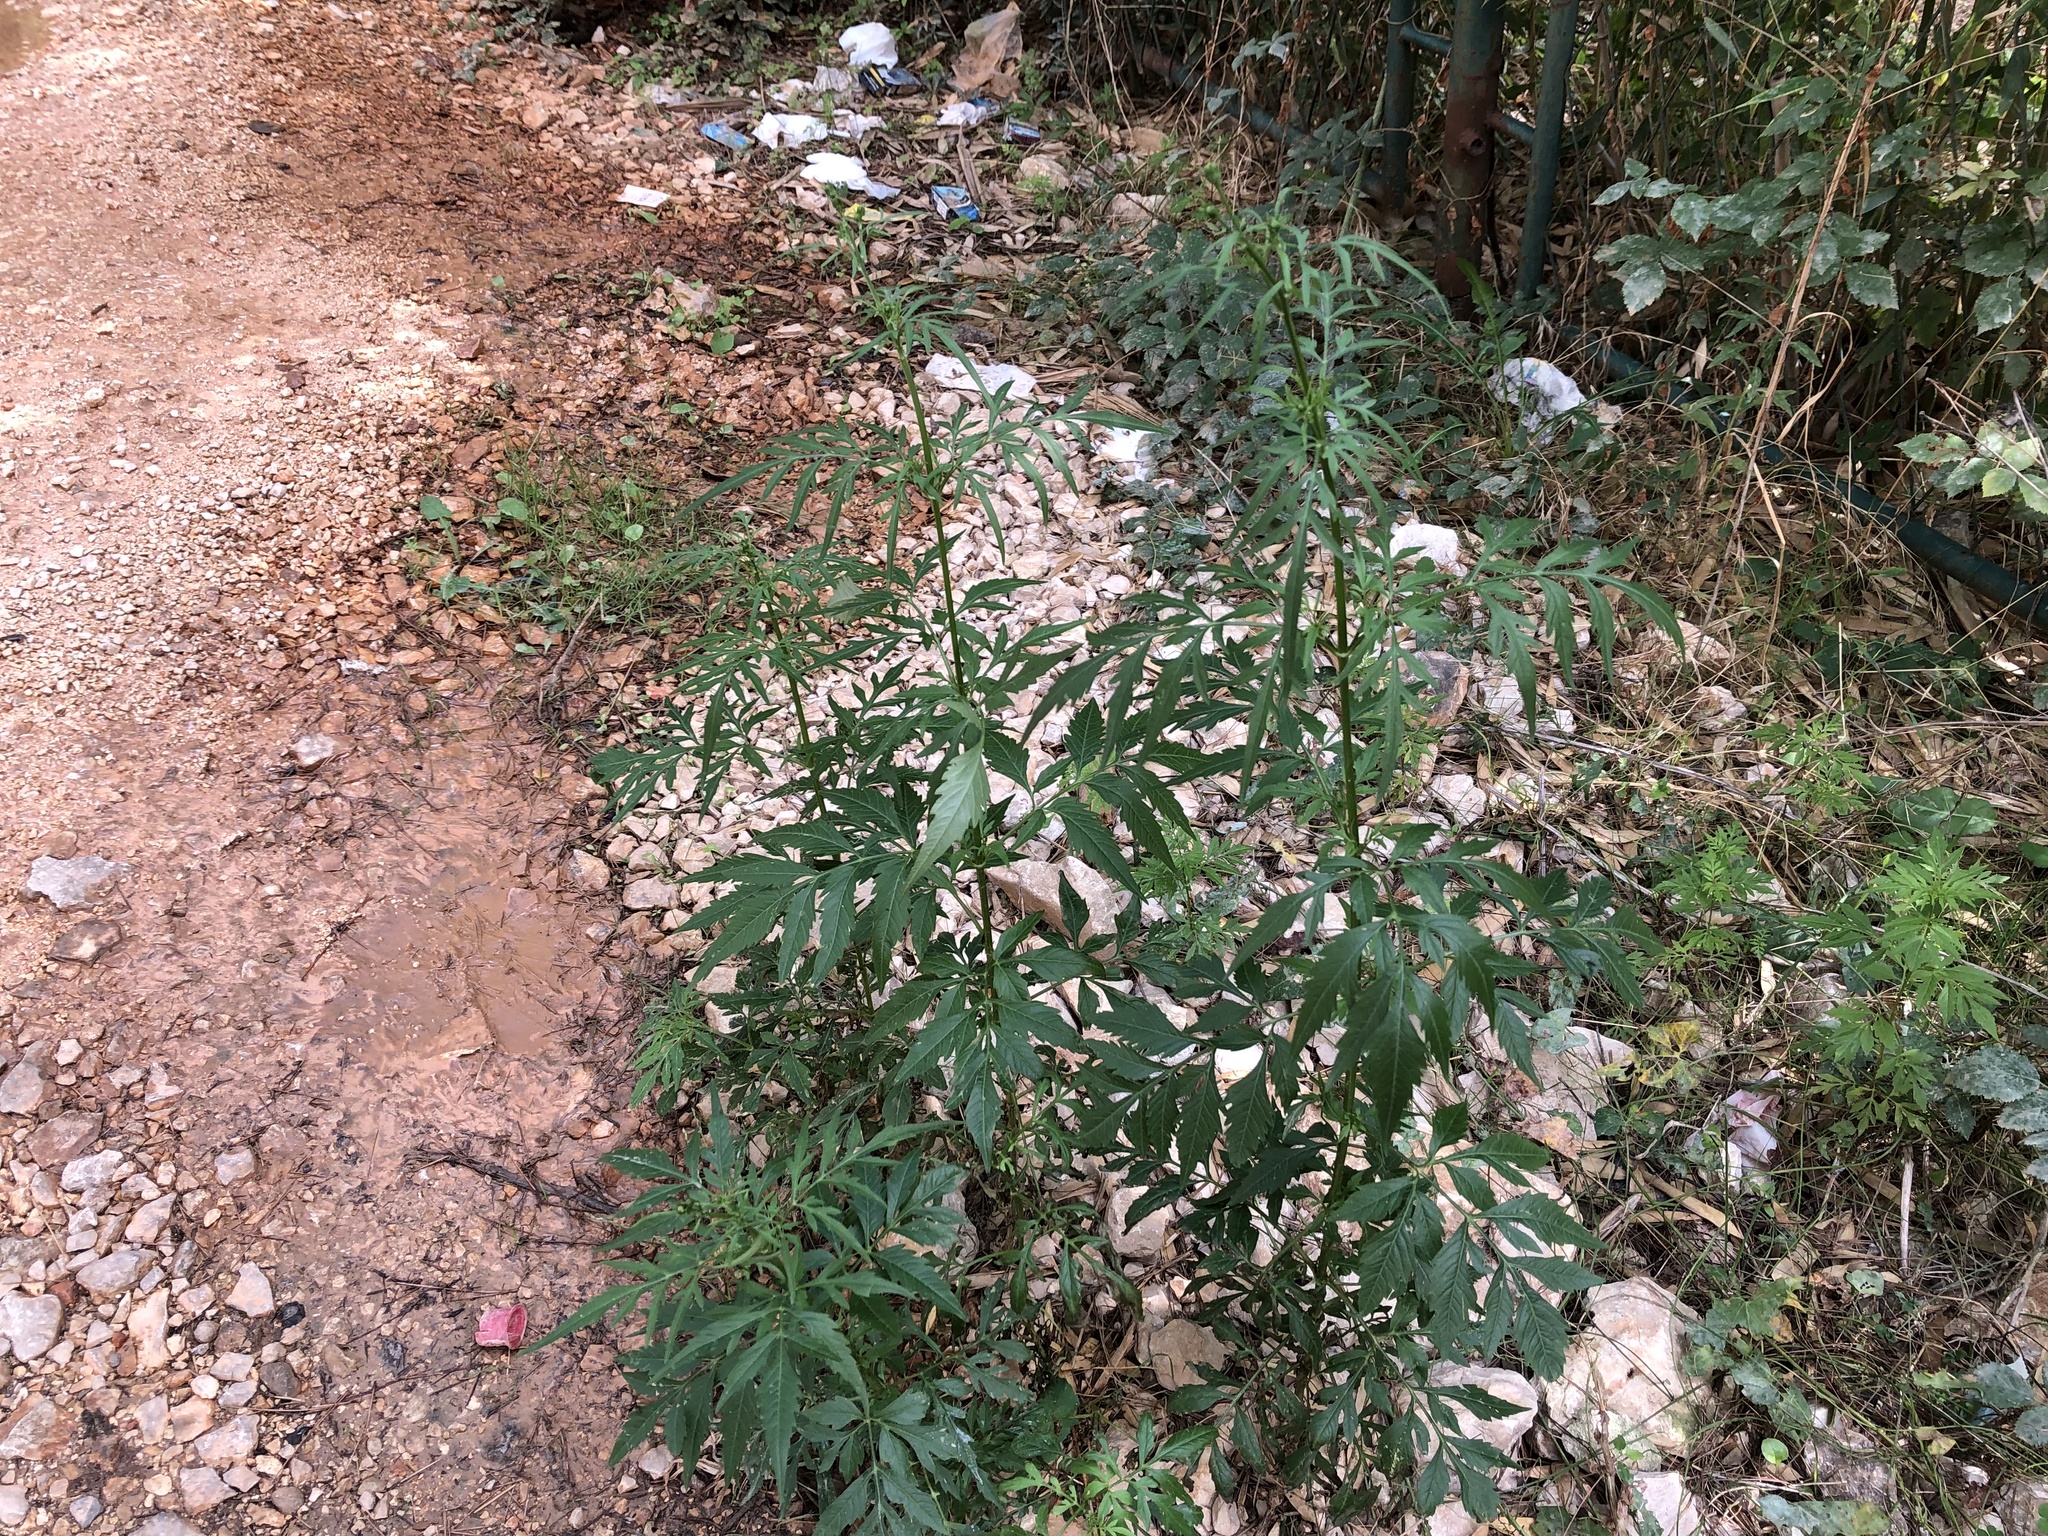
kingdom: Plantae
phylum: Tracheophyta
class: Magnoliopsida
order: Asterales
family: Asteraceae
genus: Bidens
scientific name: Bidens subalternans
